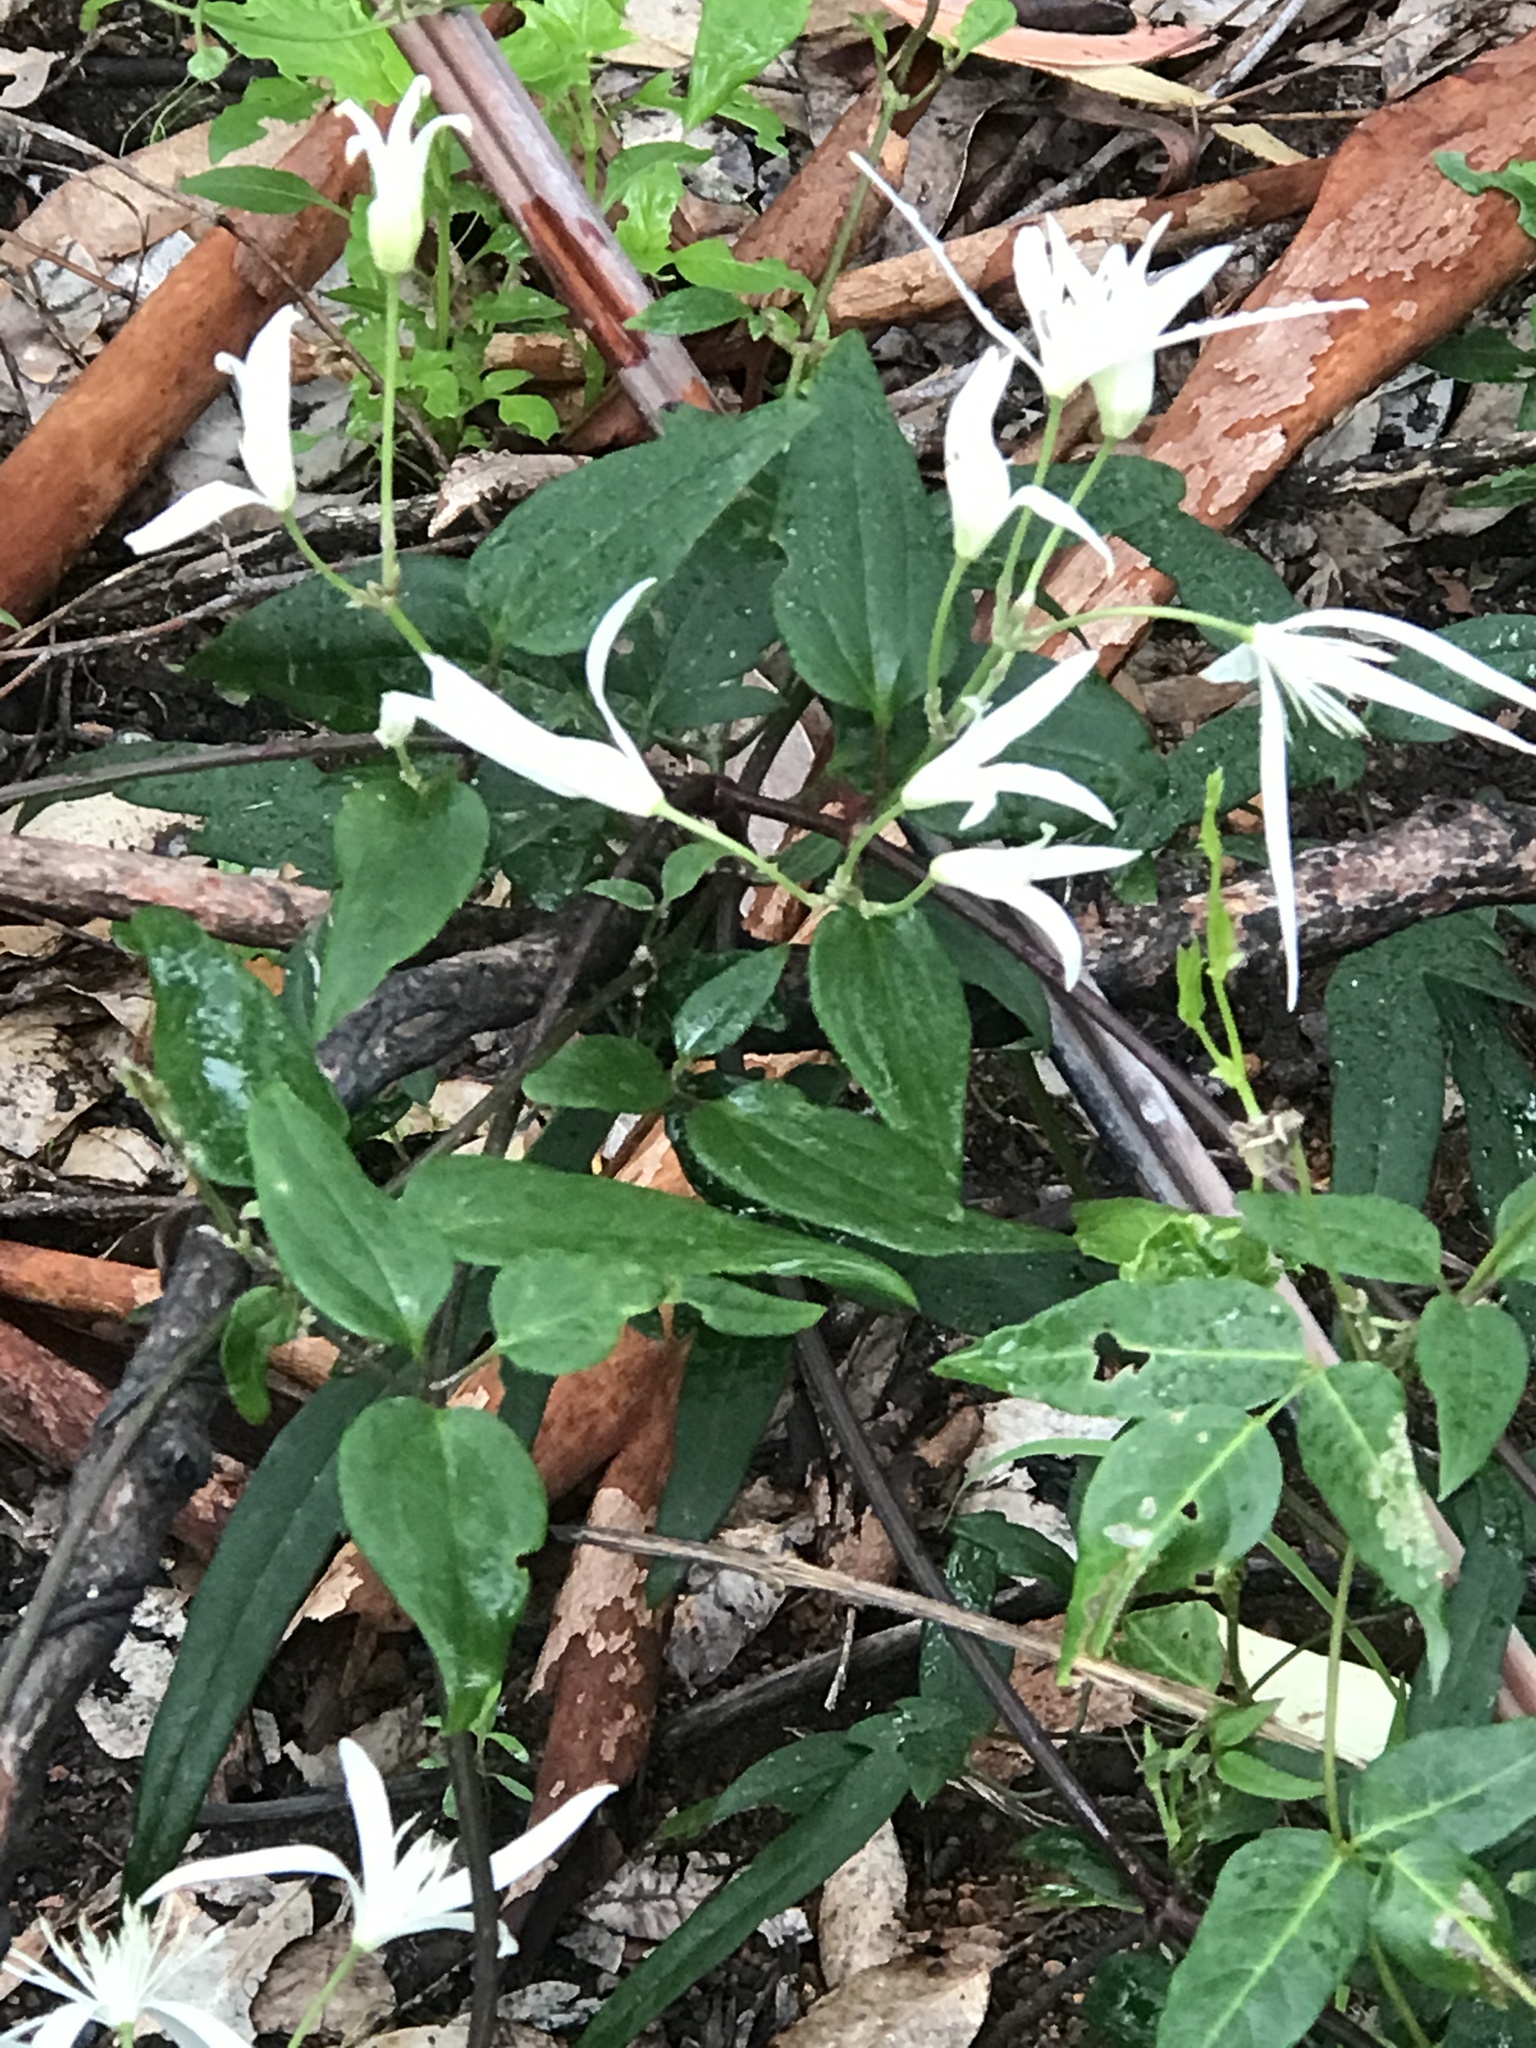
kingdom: Plantae
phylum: Tracheophyta
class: Magnoliopsida
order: Ranunculales
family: Ranunculaceae
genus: Clematis
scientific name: Clematis pubescens
